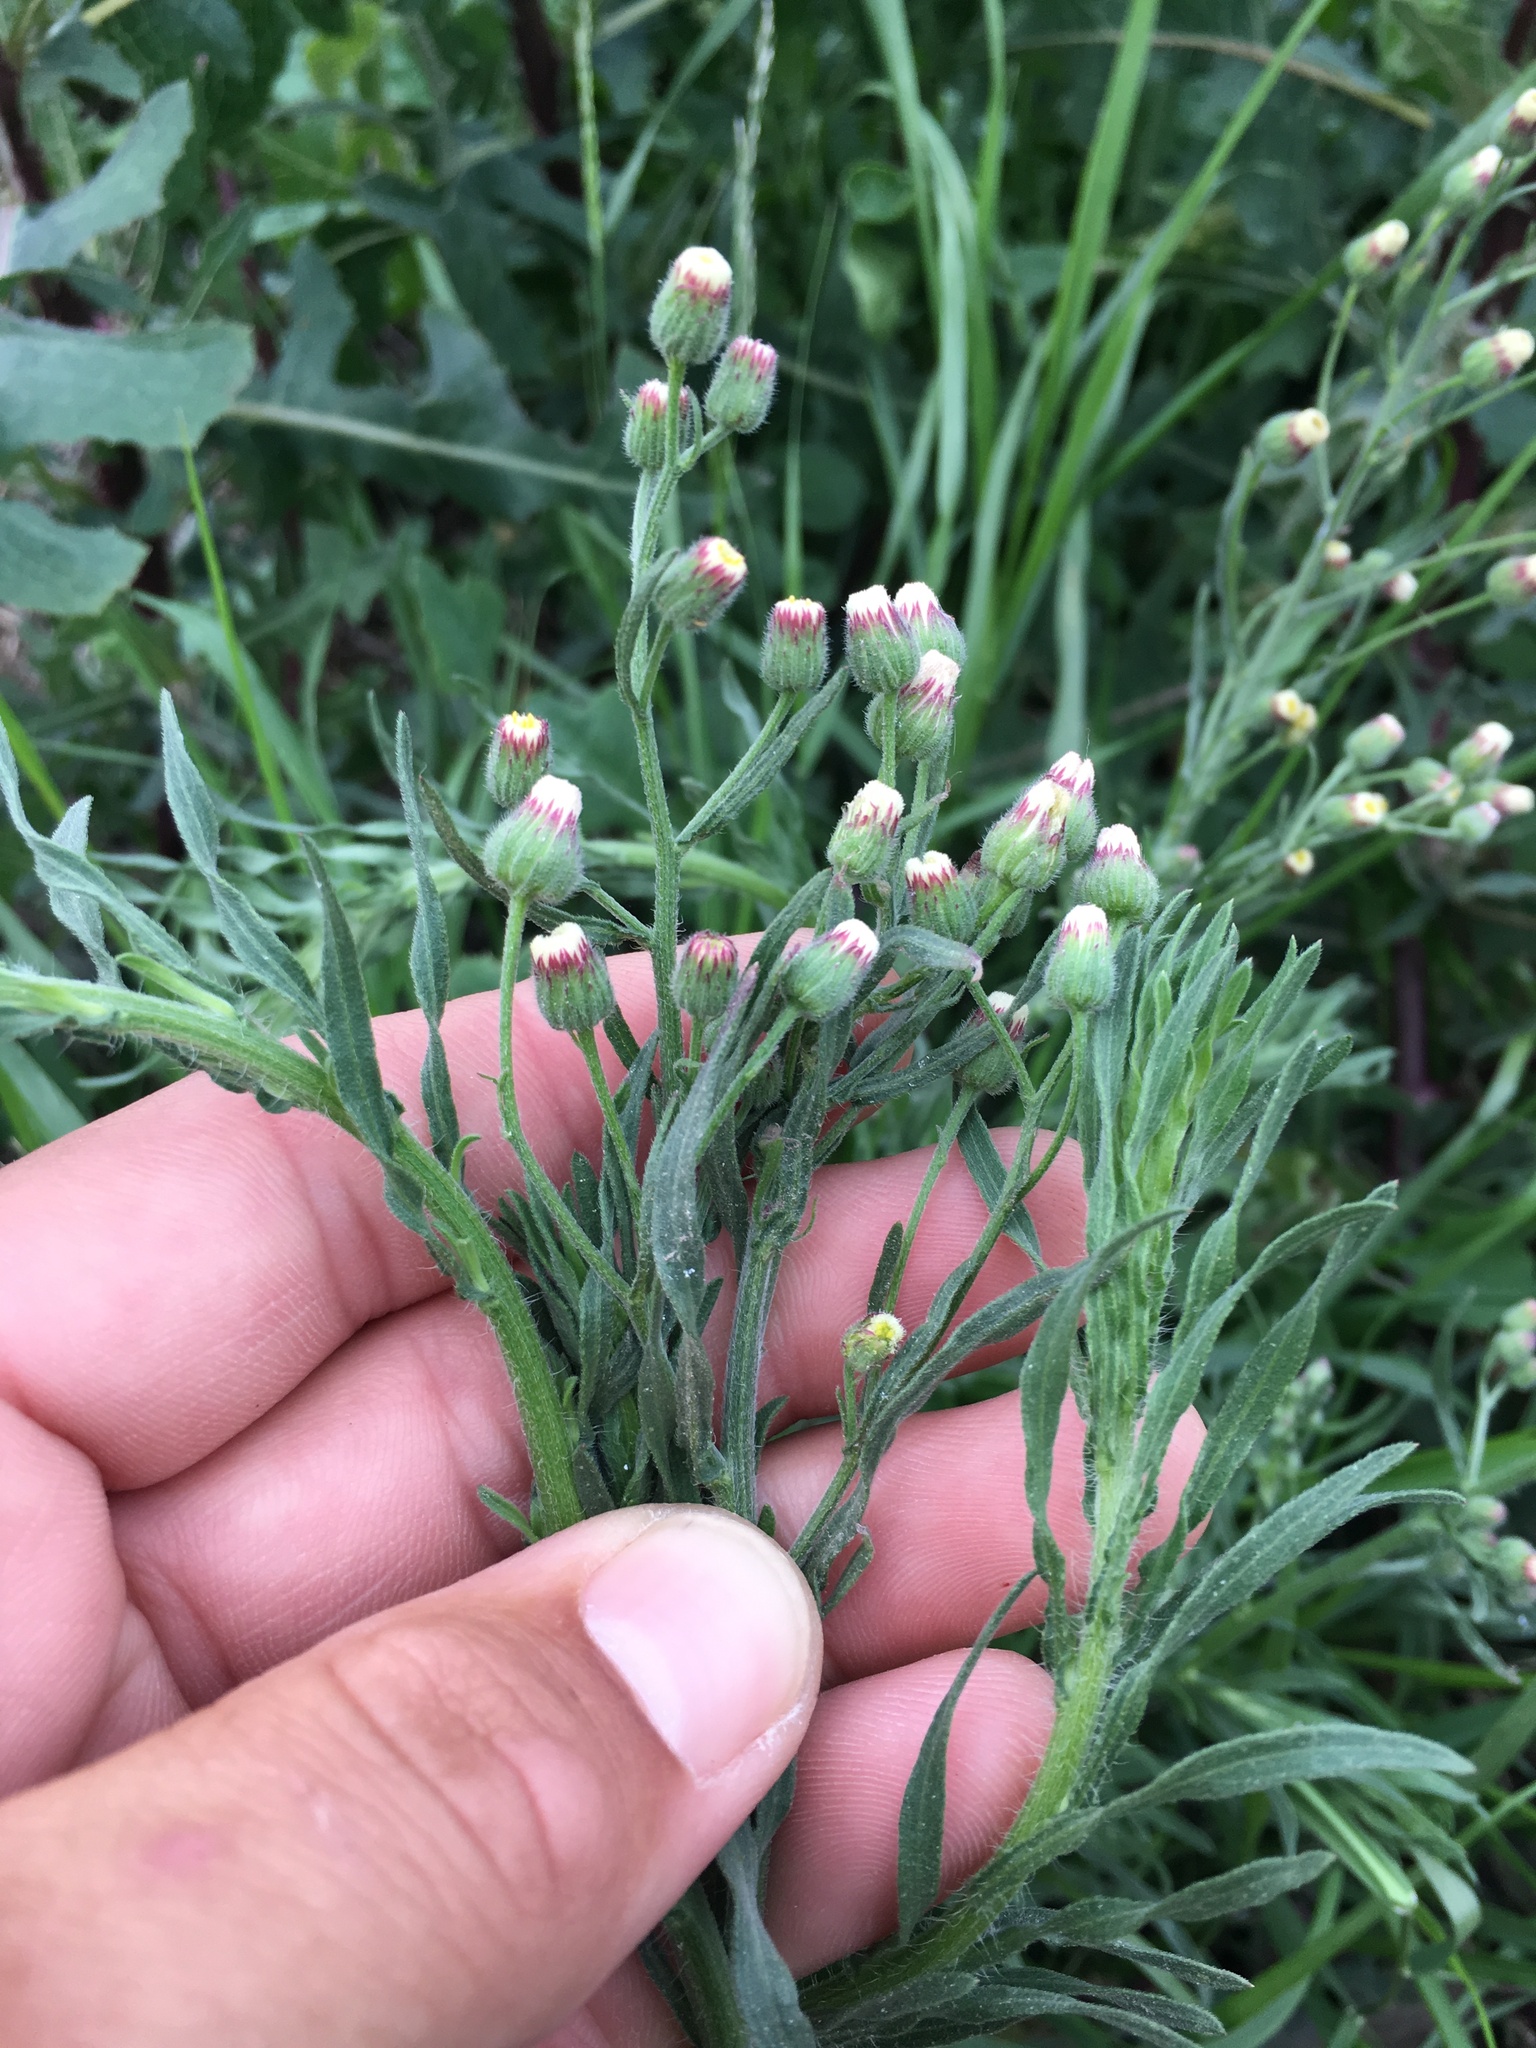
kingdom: Plantae
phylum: Tracheophyta
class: Magnoliopsida
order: Asterales
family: Asteraceae
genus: Erigeron
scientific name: Erigeron bonariensis
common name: Argentine fleabane
